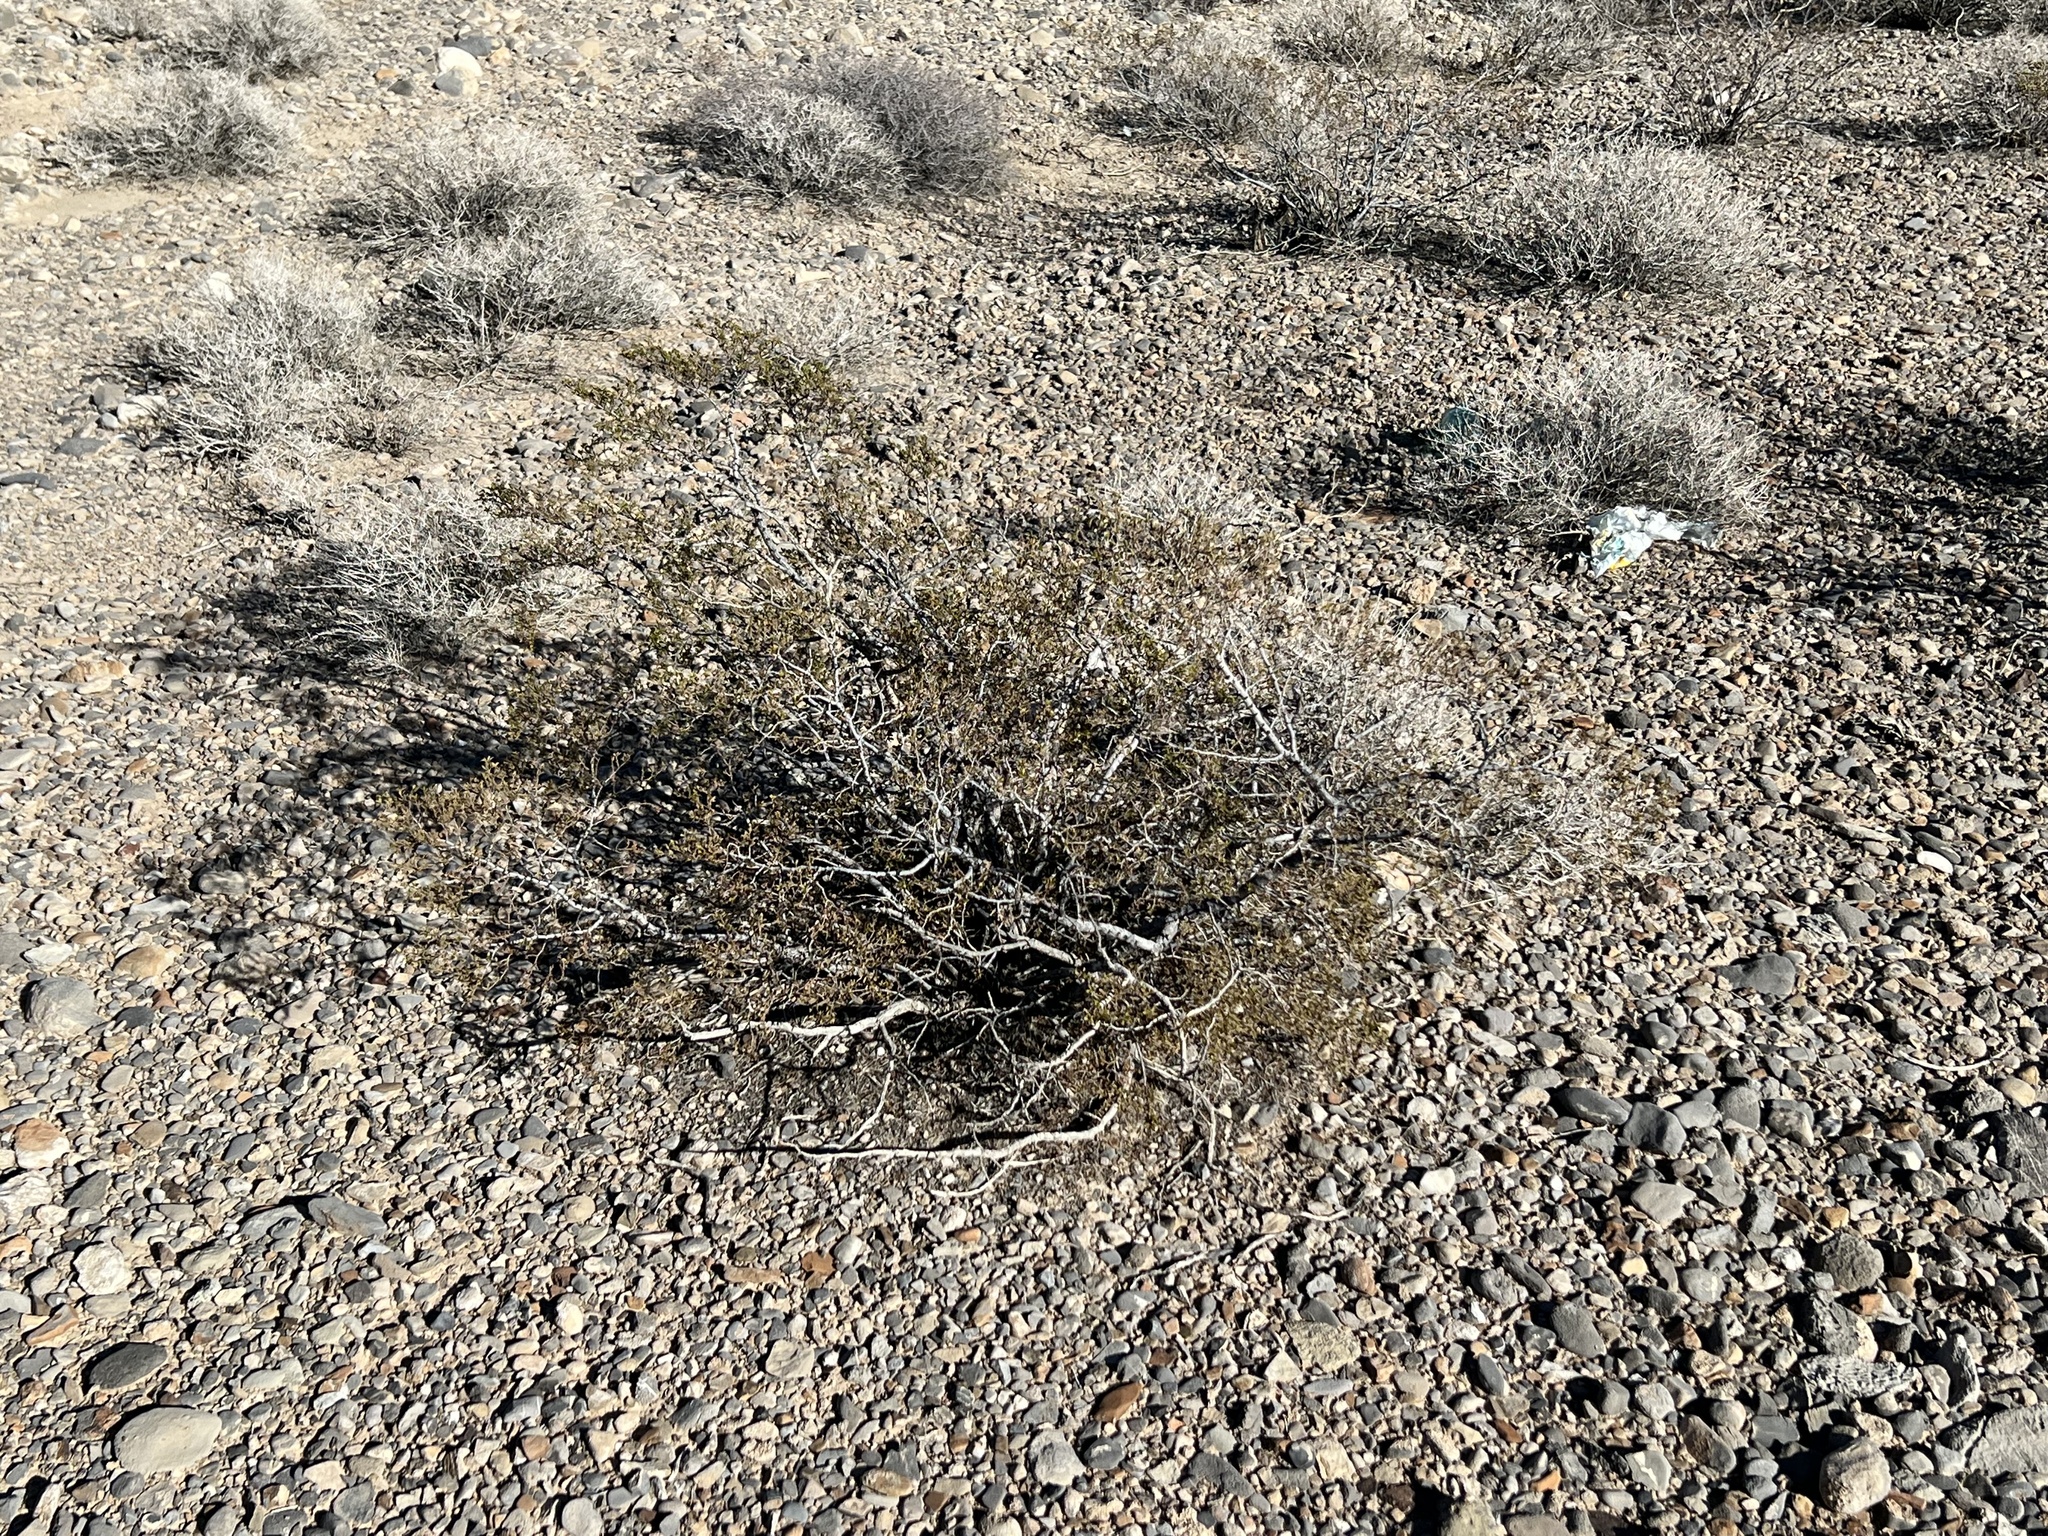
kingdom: Plantae
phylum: Tracheophyta
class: Magnoliopsida
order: Zygophyllales
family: Zygophyllaceae
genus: Larrea
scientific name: Larrea tridentata
